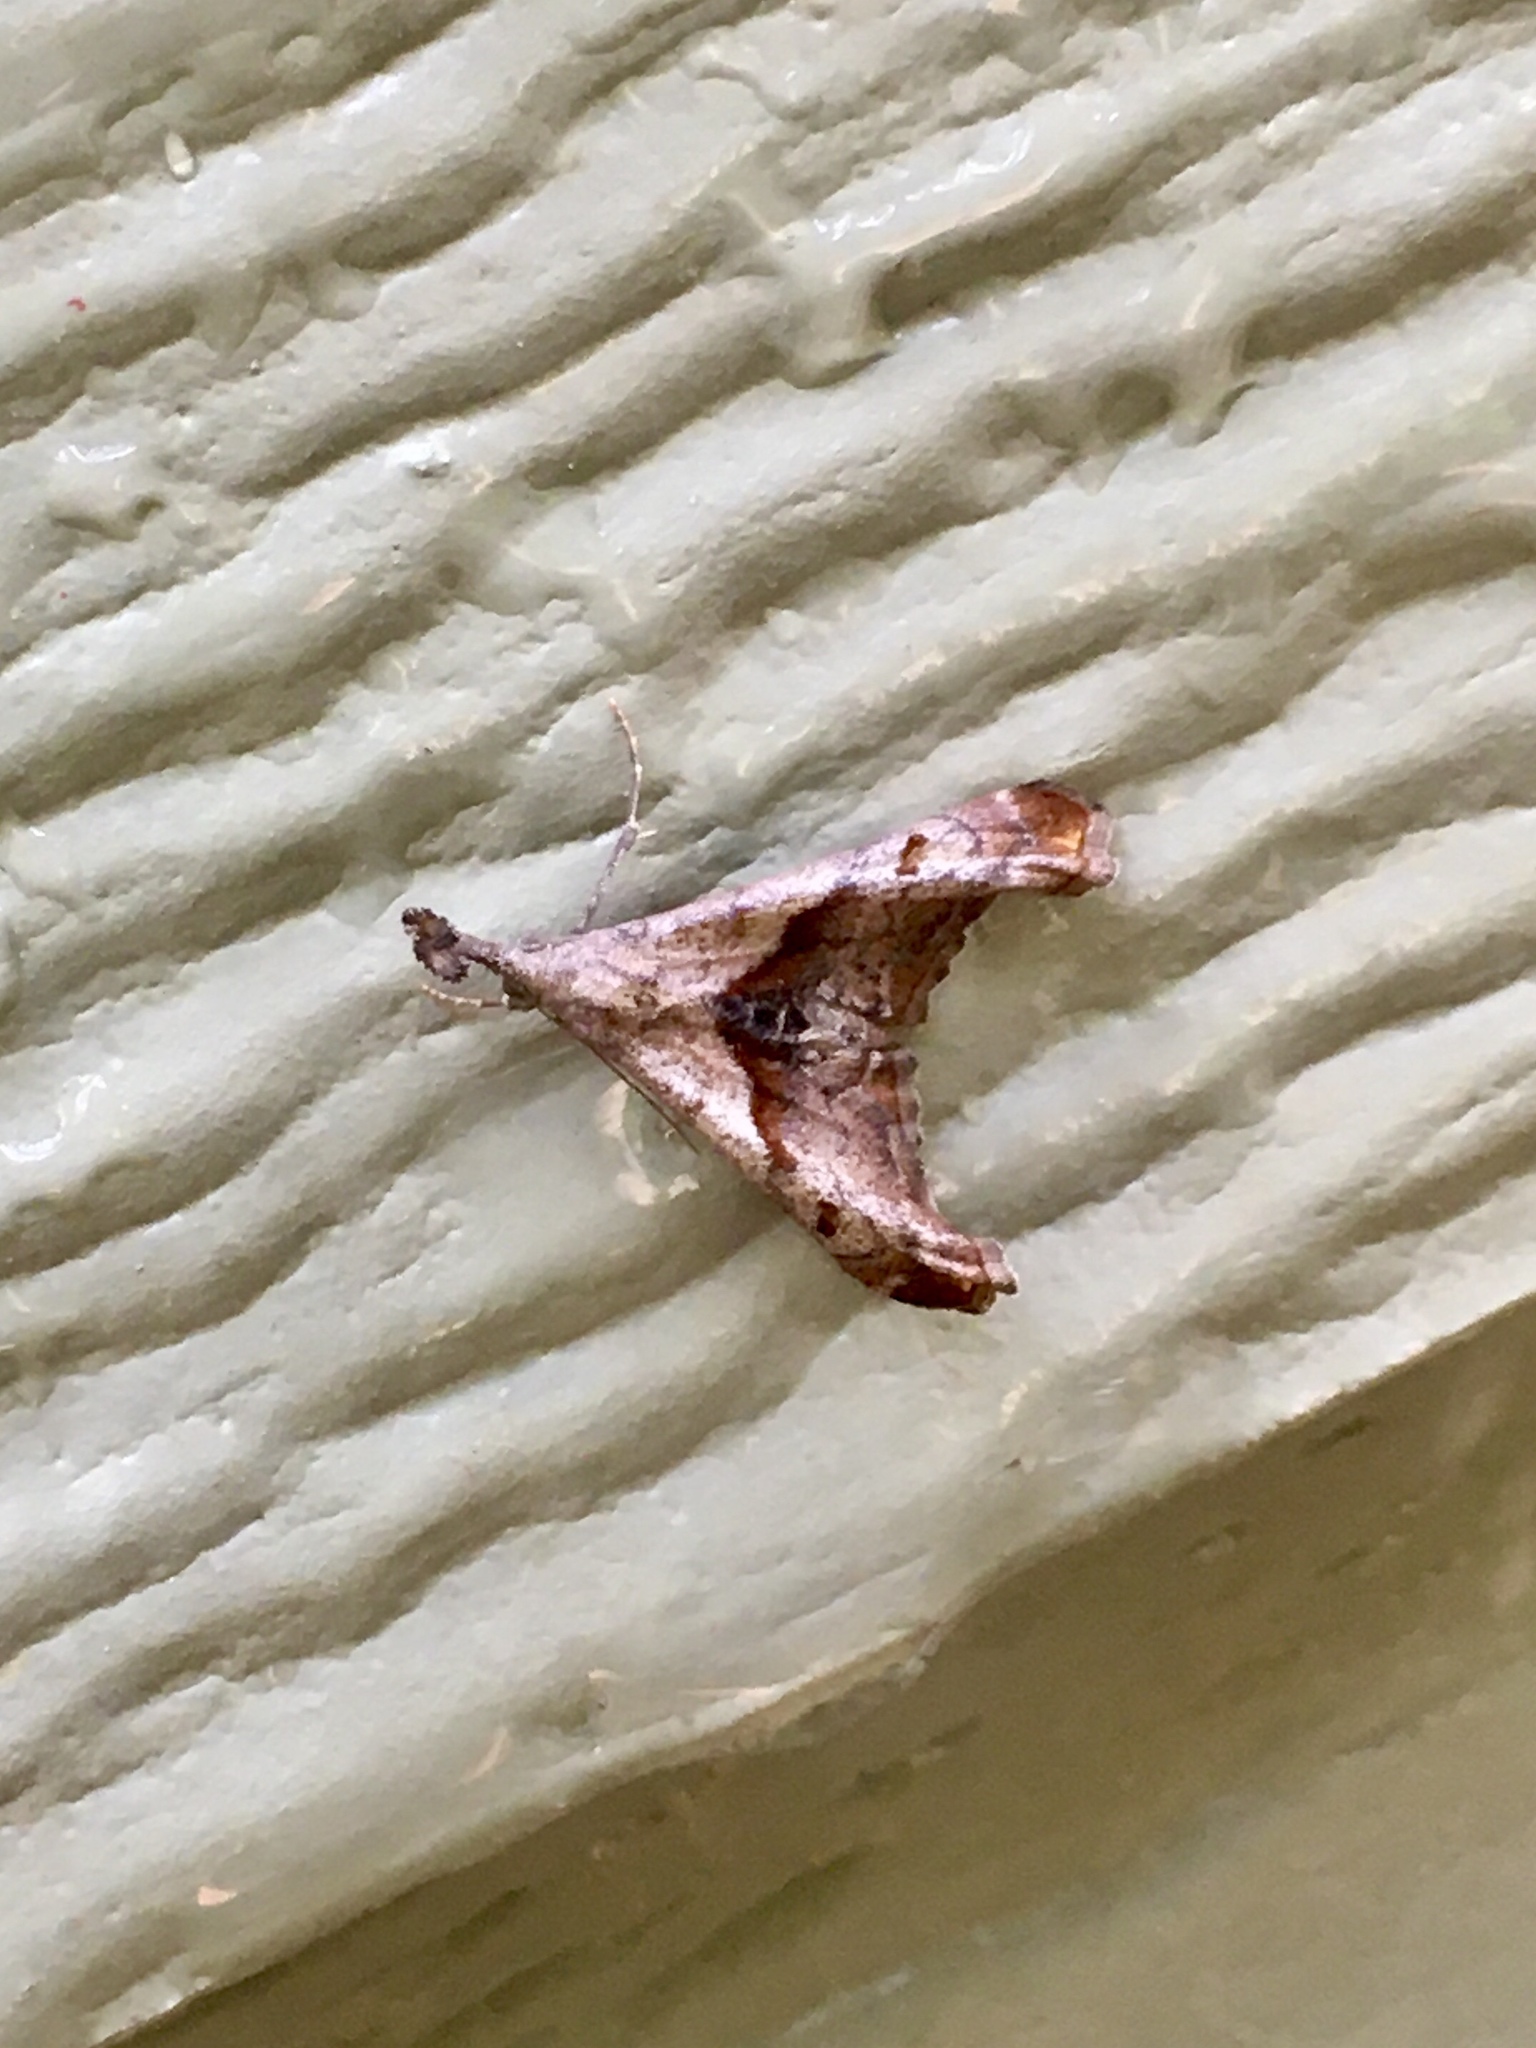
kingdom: Animalia
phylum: Arthropoda
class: Insecta
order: Lepidoptera
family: Erebidae
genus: Palthis
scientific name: Palthis angulalis
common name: Dark-spotted palthis moth
